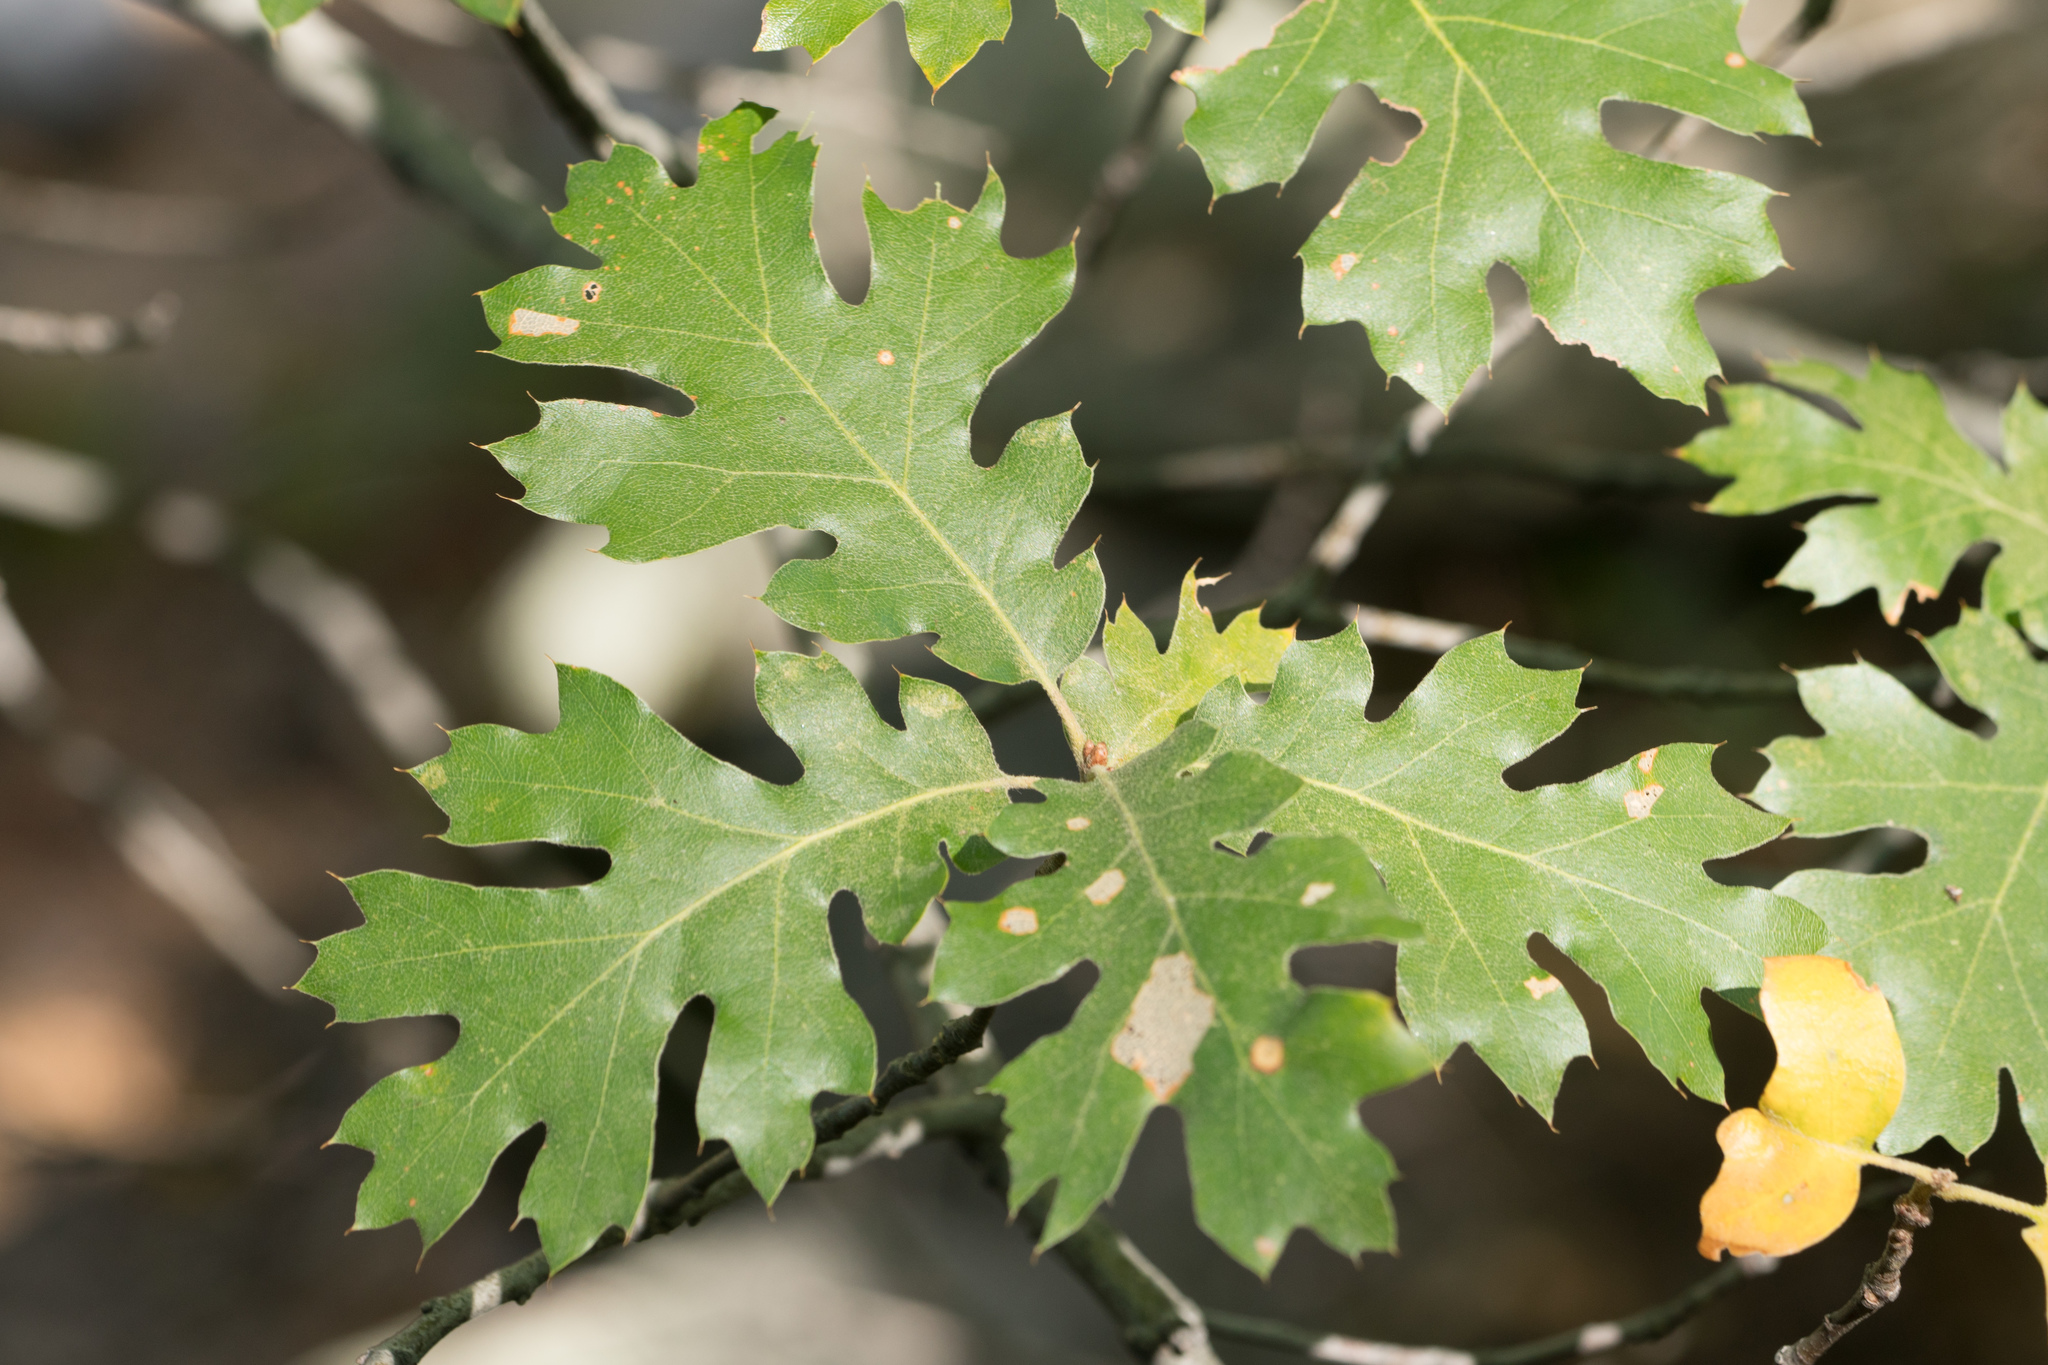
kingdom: Plantae
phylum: Tracheophyta
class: Magnoliopsida
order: Fagales
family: Fagaceae
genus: Quercus
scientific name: Quercus kelloggii
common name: California black oak
